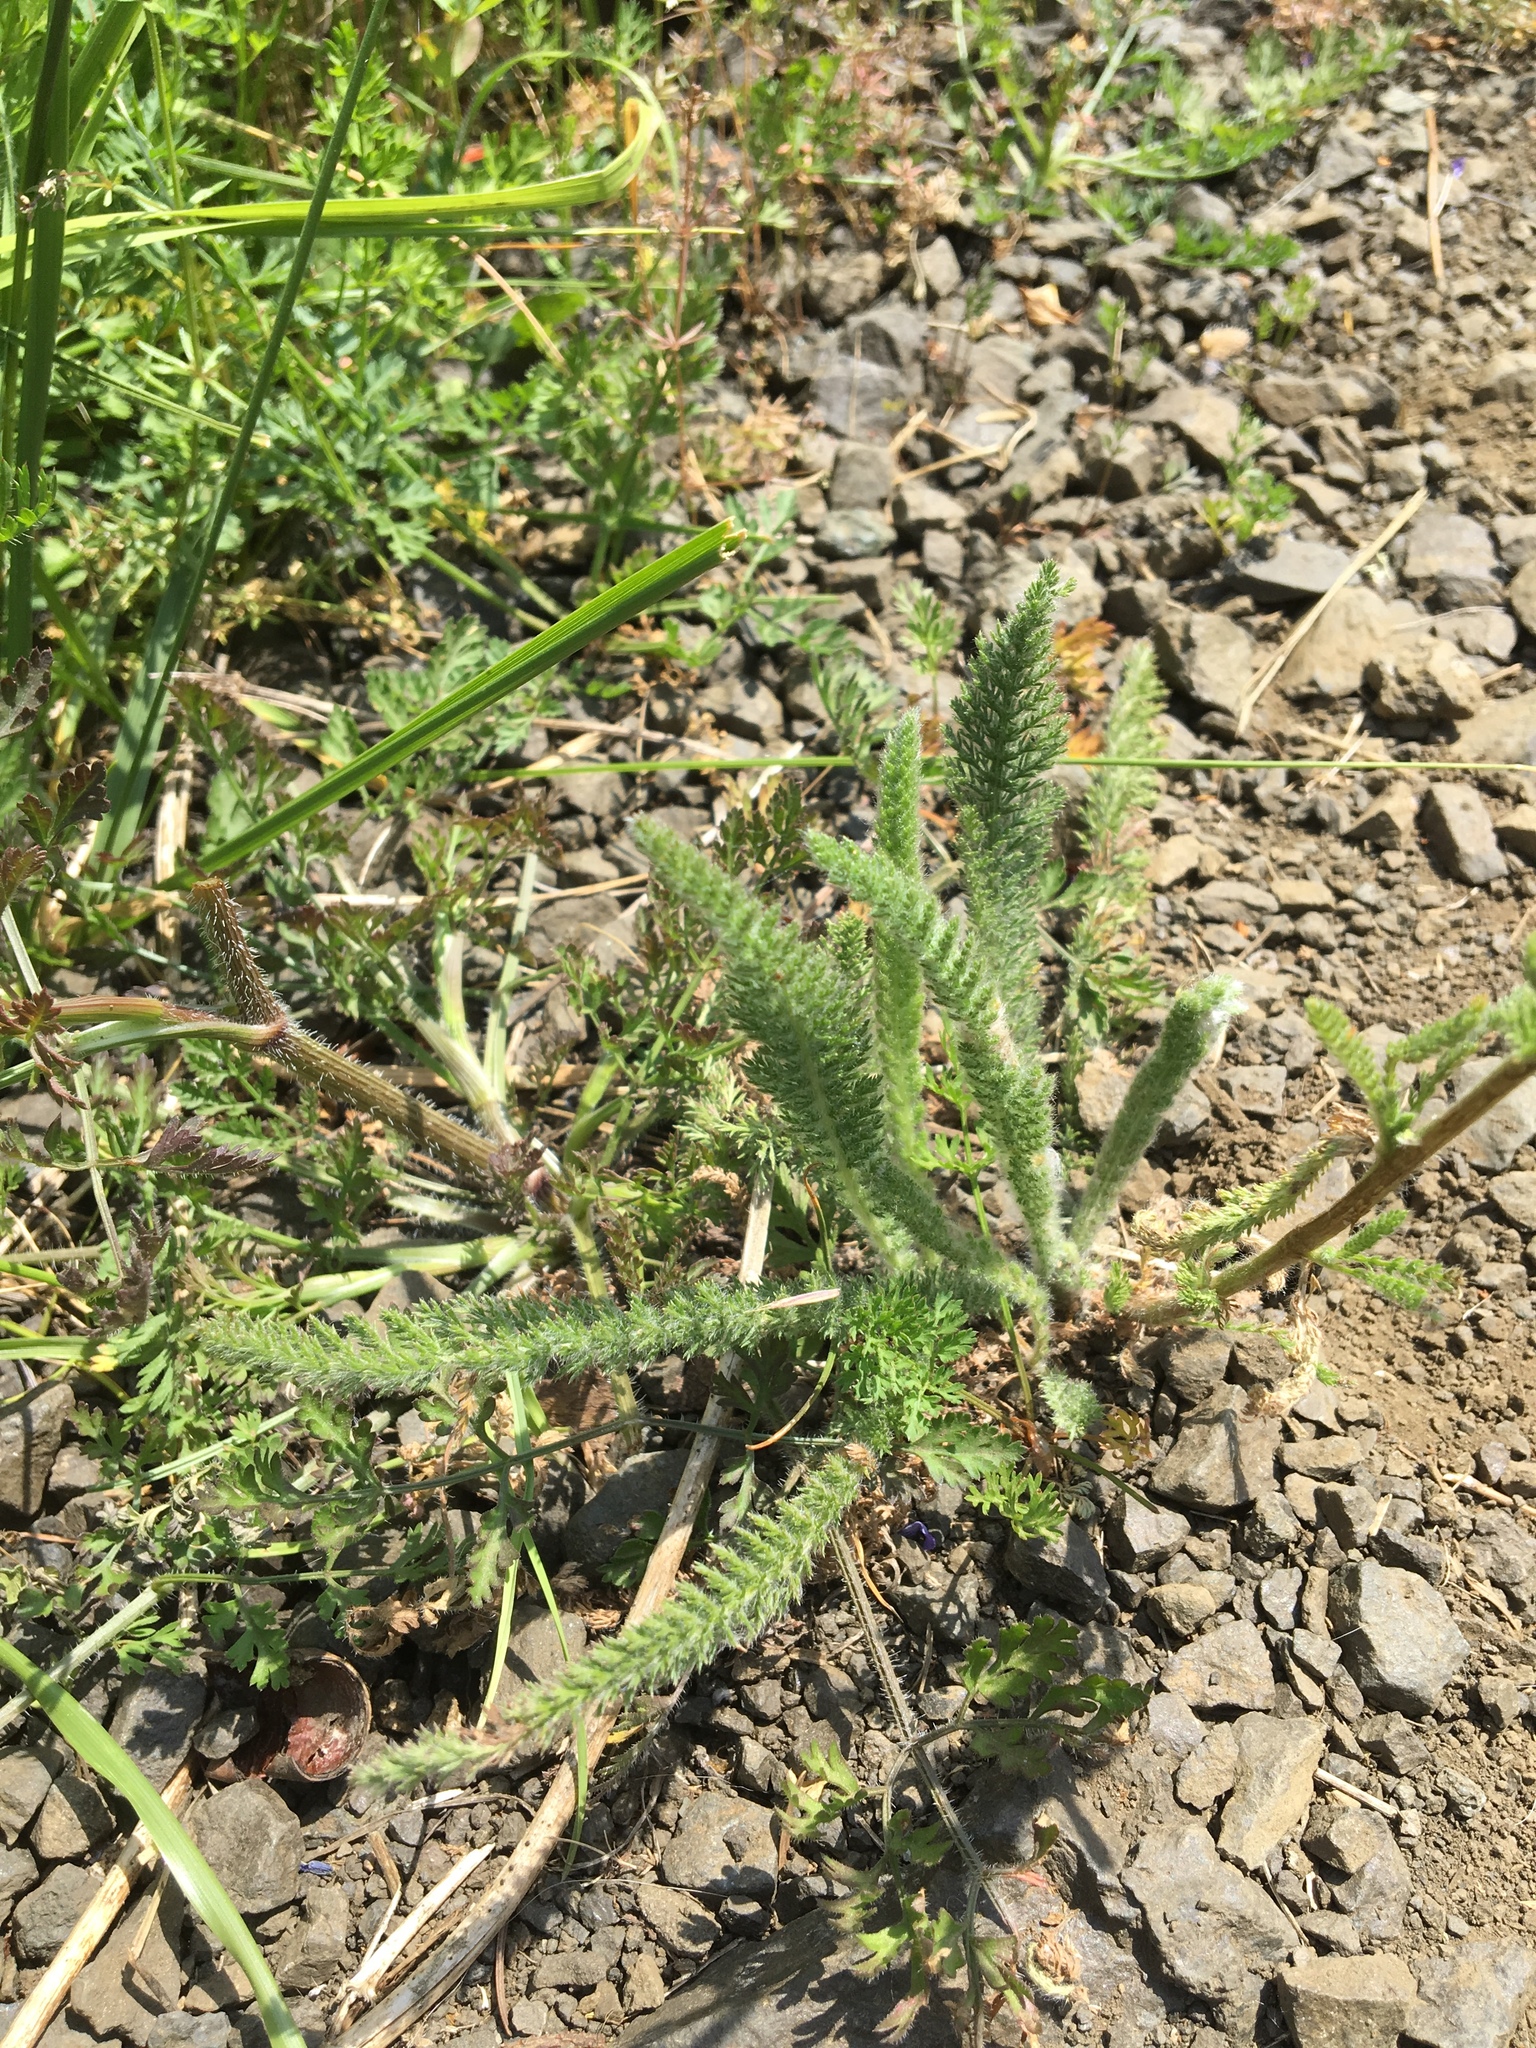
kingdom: Plantae
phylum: Tracheophyta
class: Magnoliopsida
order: Asterales
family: Asteraceae
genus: Achillea
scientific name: Achillea millefolium
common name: Yarrow
